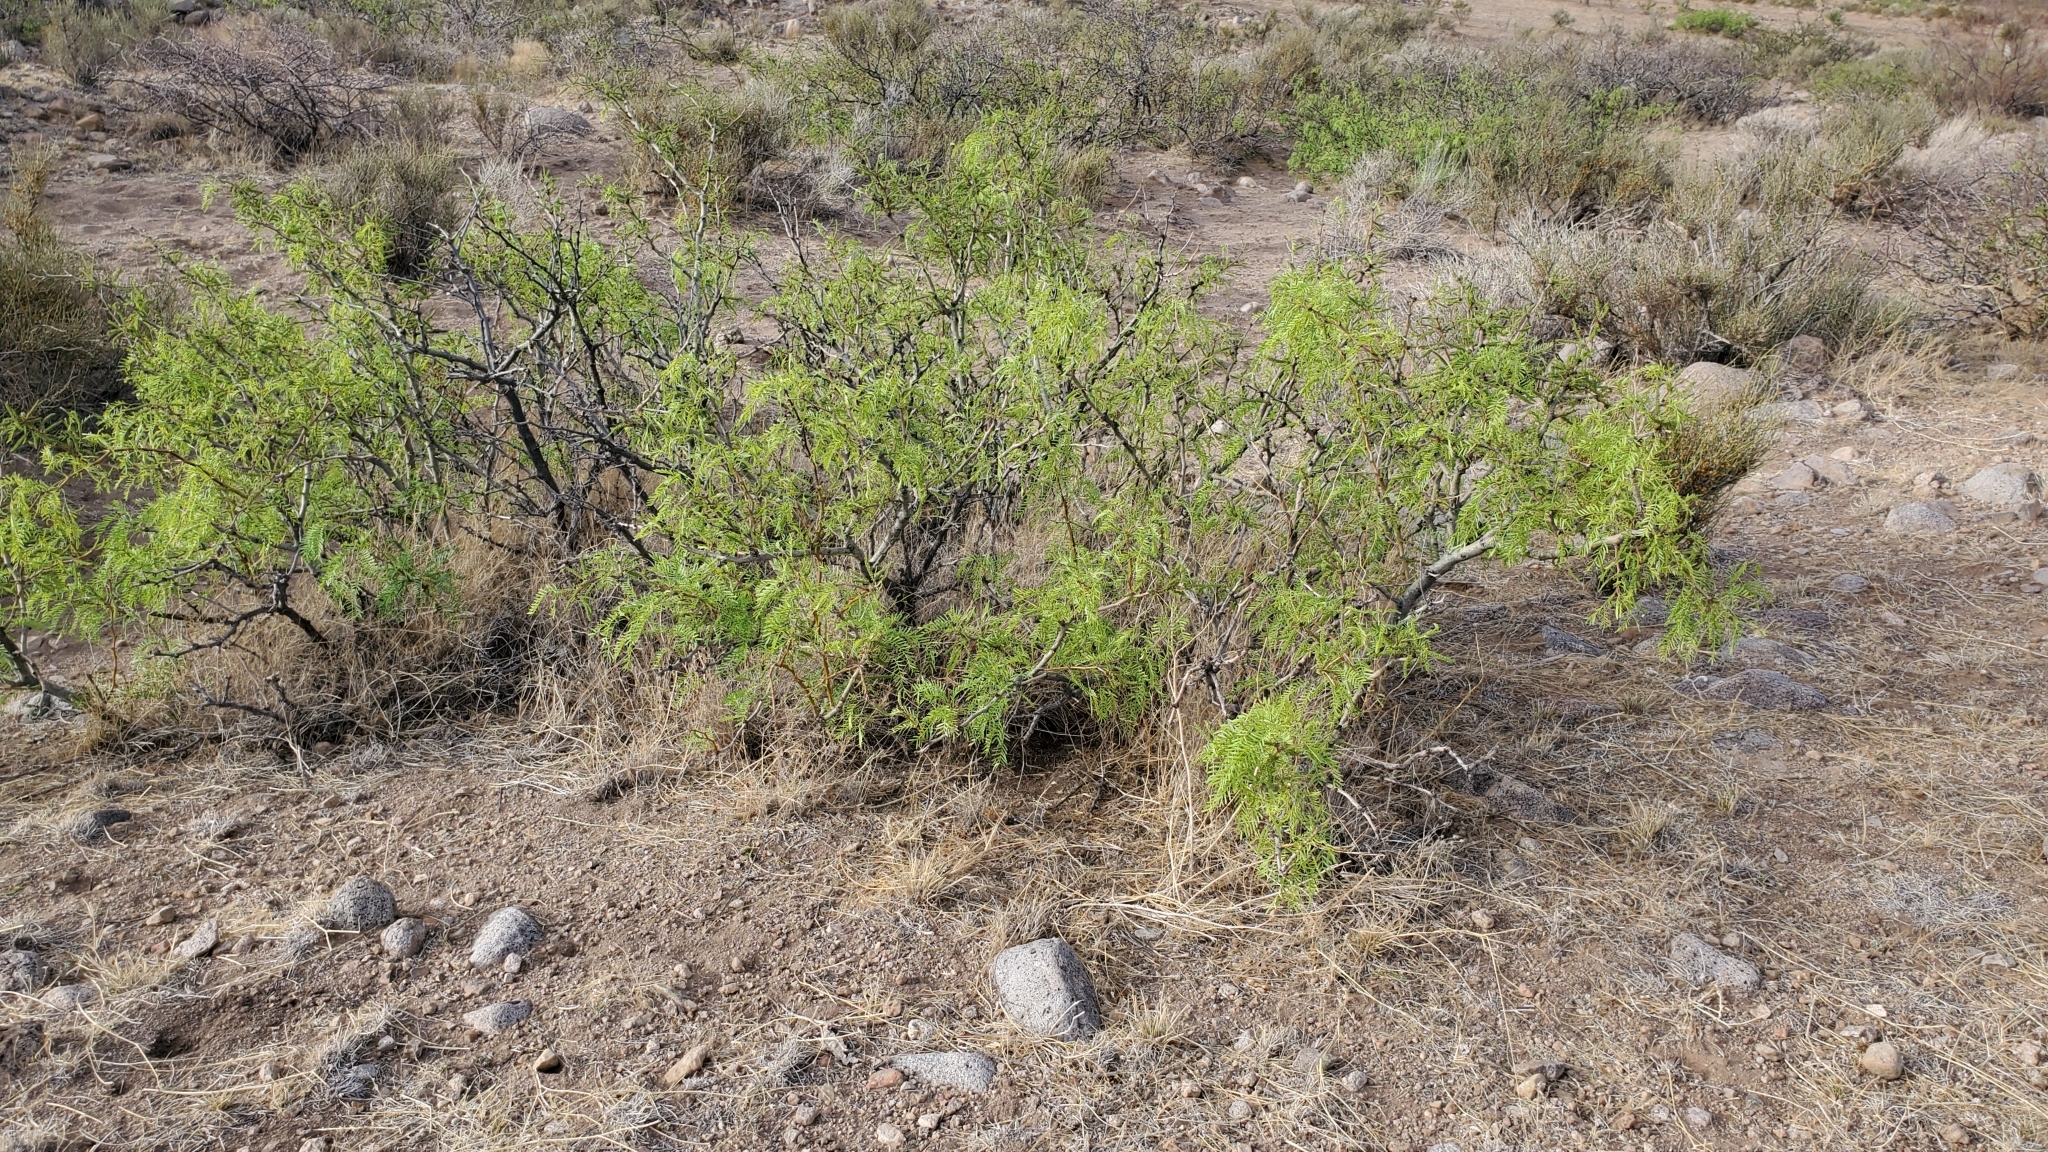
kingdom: Plantae
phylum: Tracheophyta
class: Magnoliopsida
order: Fabales
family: Fabaceae
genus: Prosopis
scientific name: Prosopis glandulosa
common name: Honey mesquite
